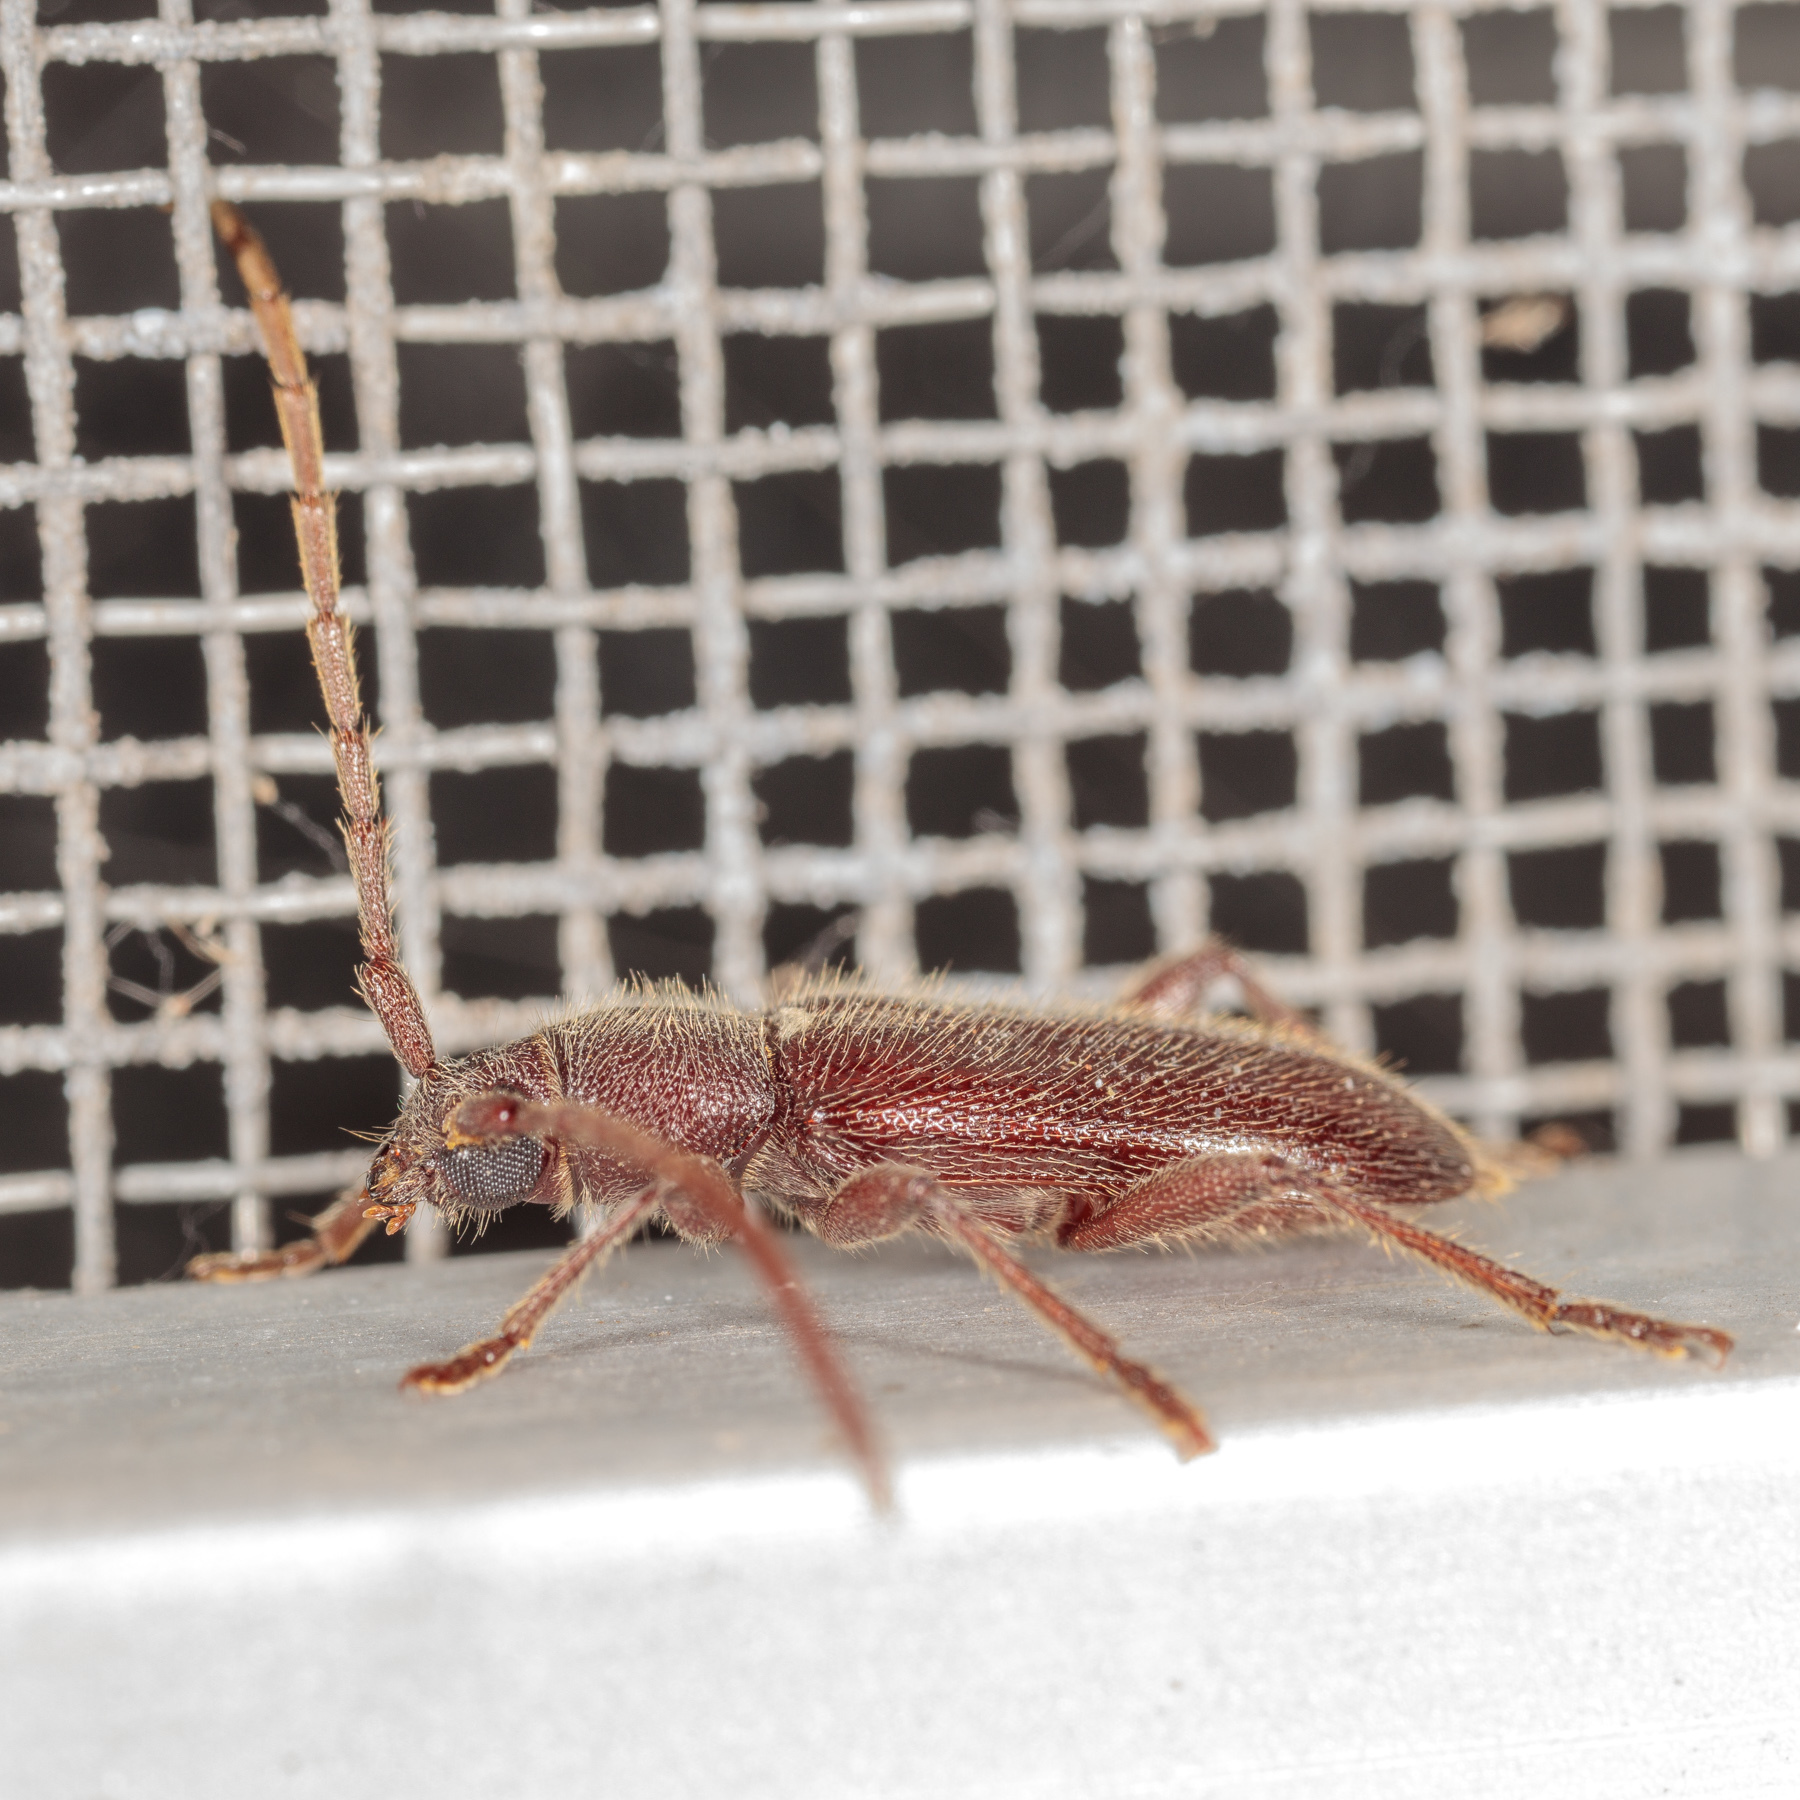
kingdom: Animalia
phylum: Arthropoda
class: Insecta
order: Coleoptera
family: Cerambycidae
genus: Anelaphus
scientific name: Anelaphus moestus
